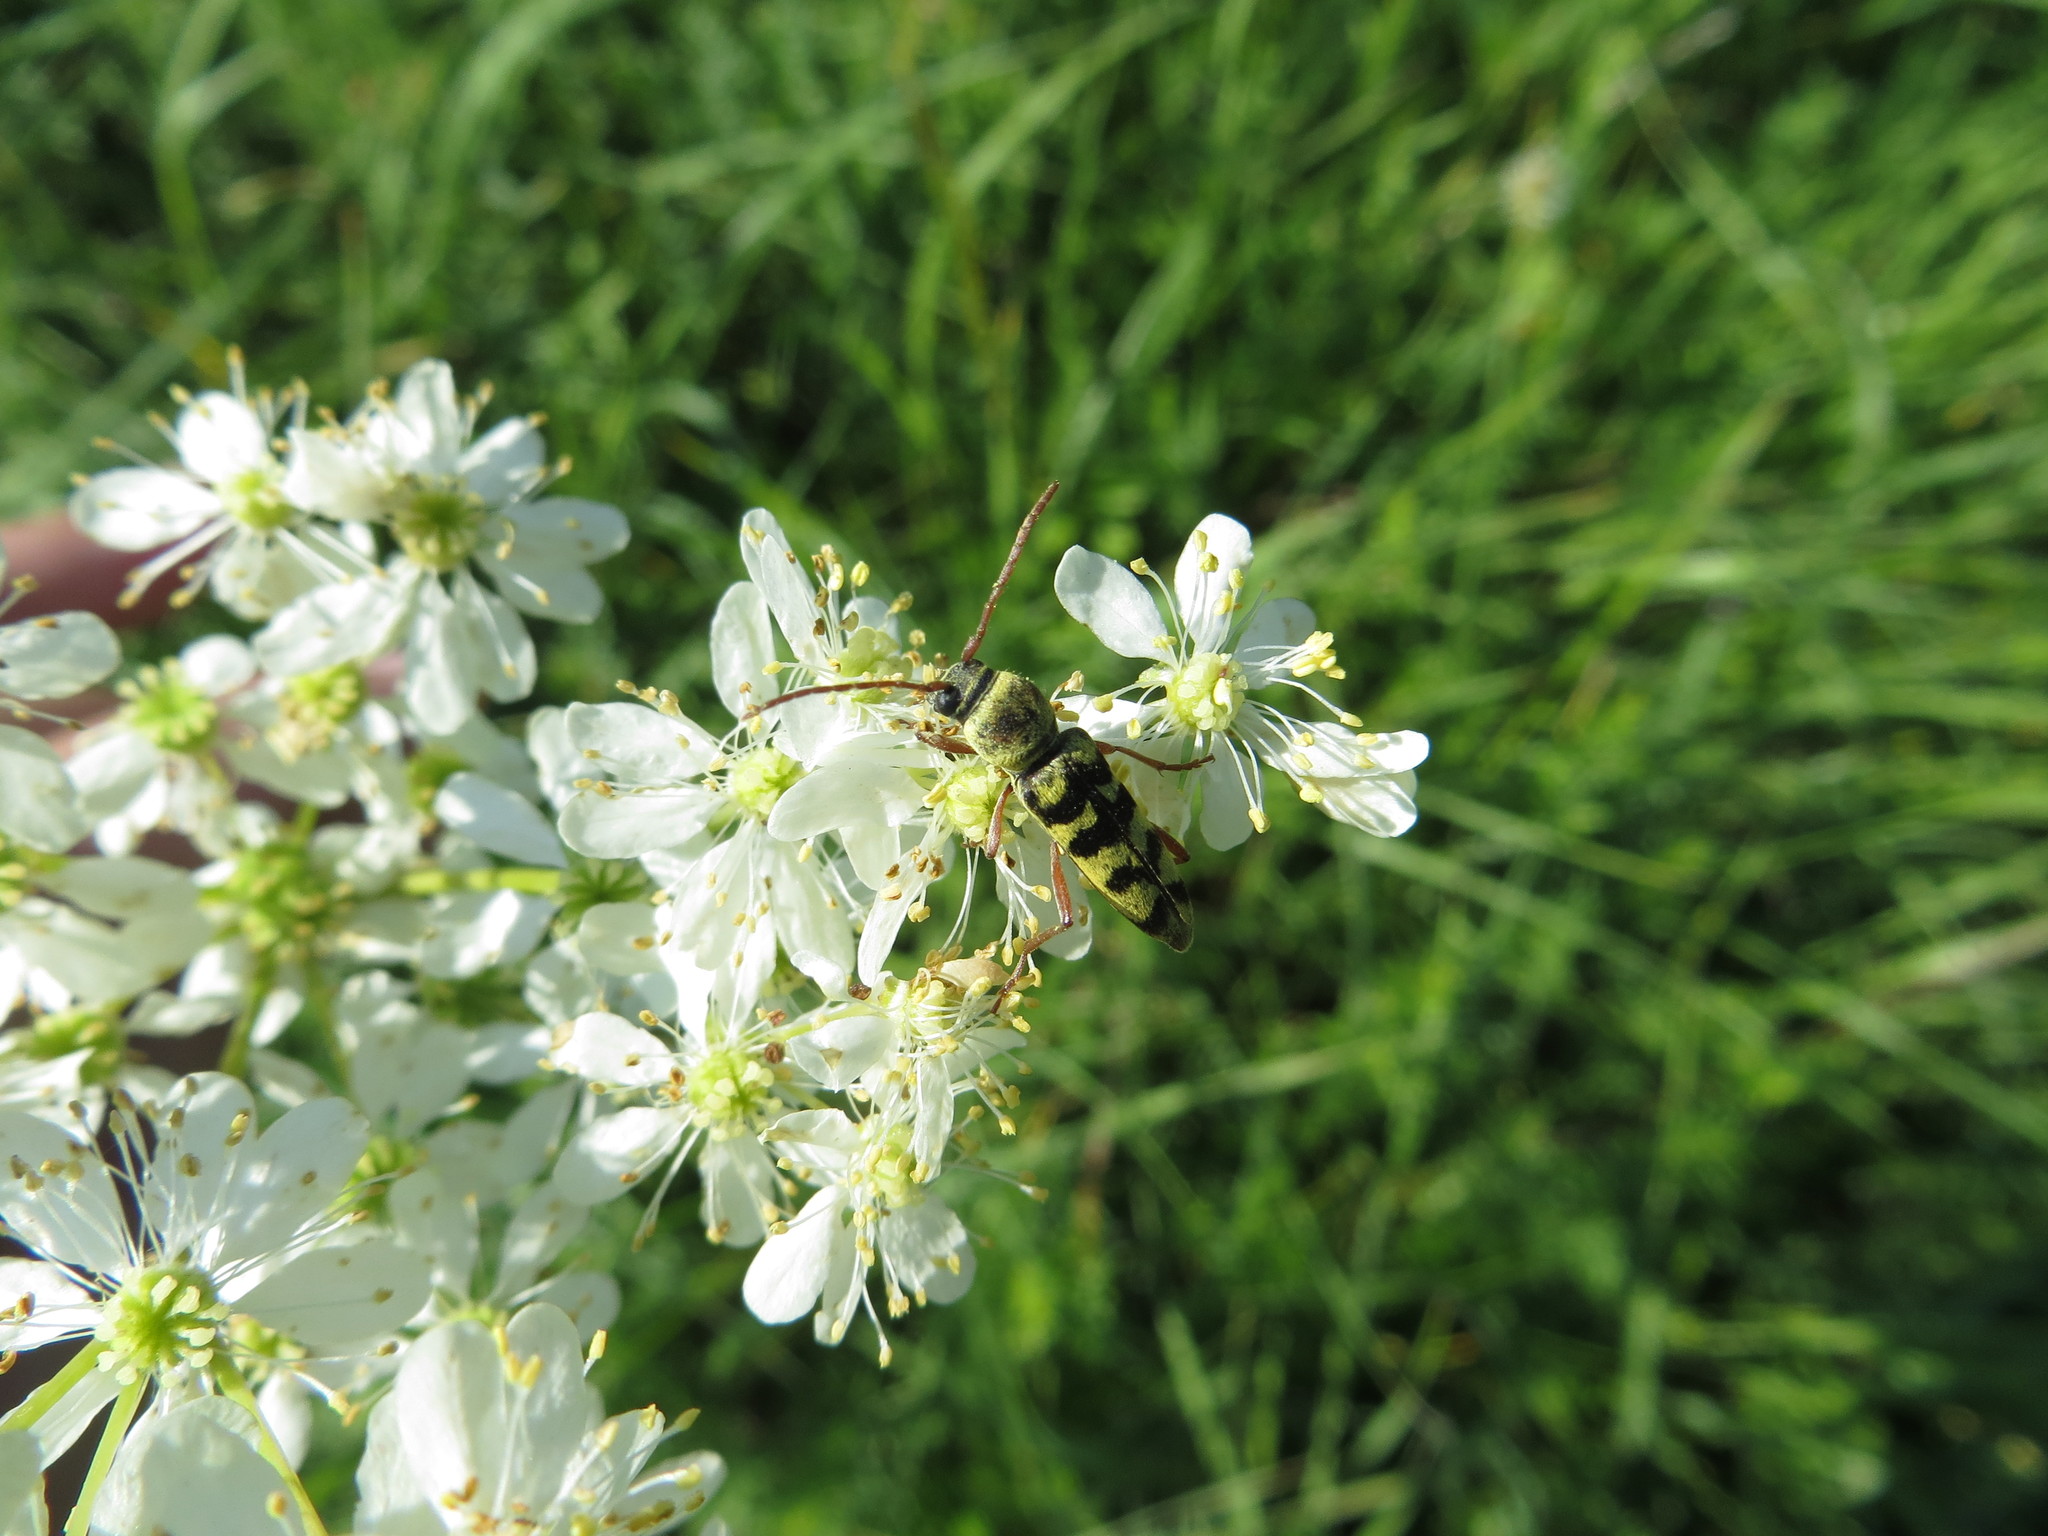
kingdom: Animalia
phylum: Arthropoda
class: Insecta
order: Coleoptera
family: Cerambycidae
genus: Plagionotus
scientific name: Plagionotus floralis
